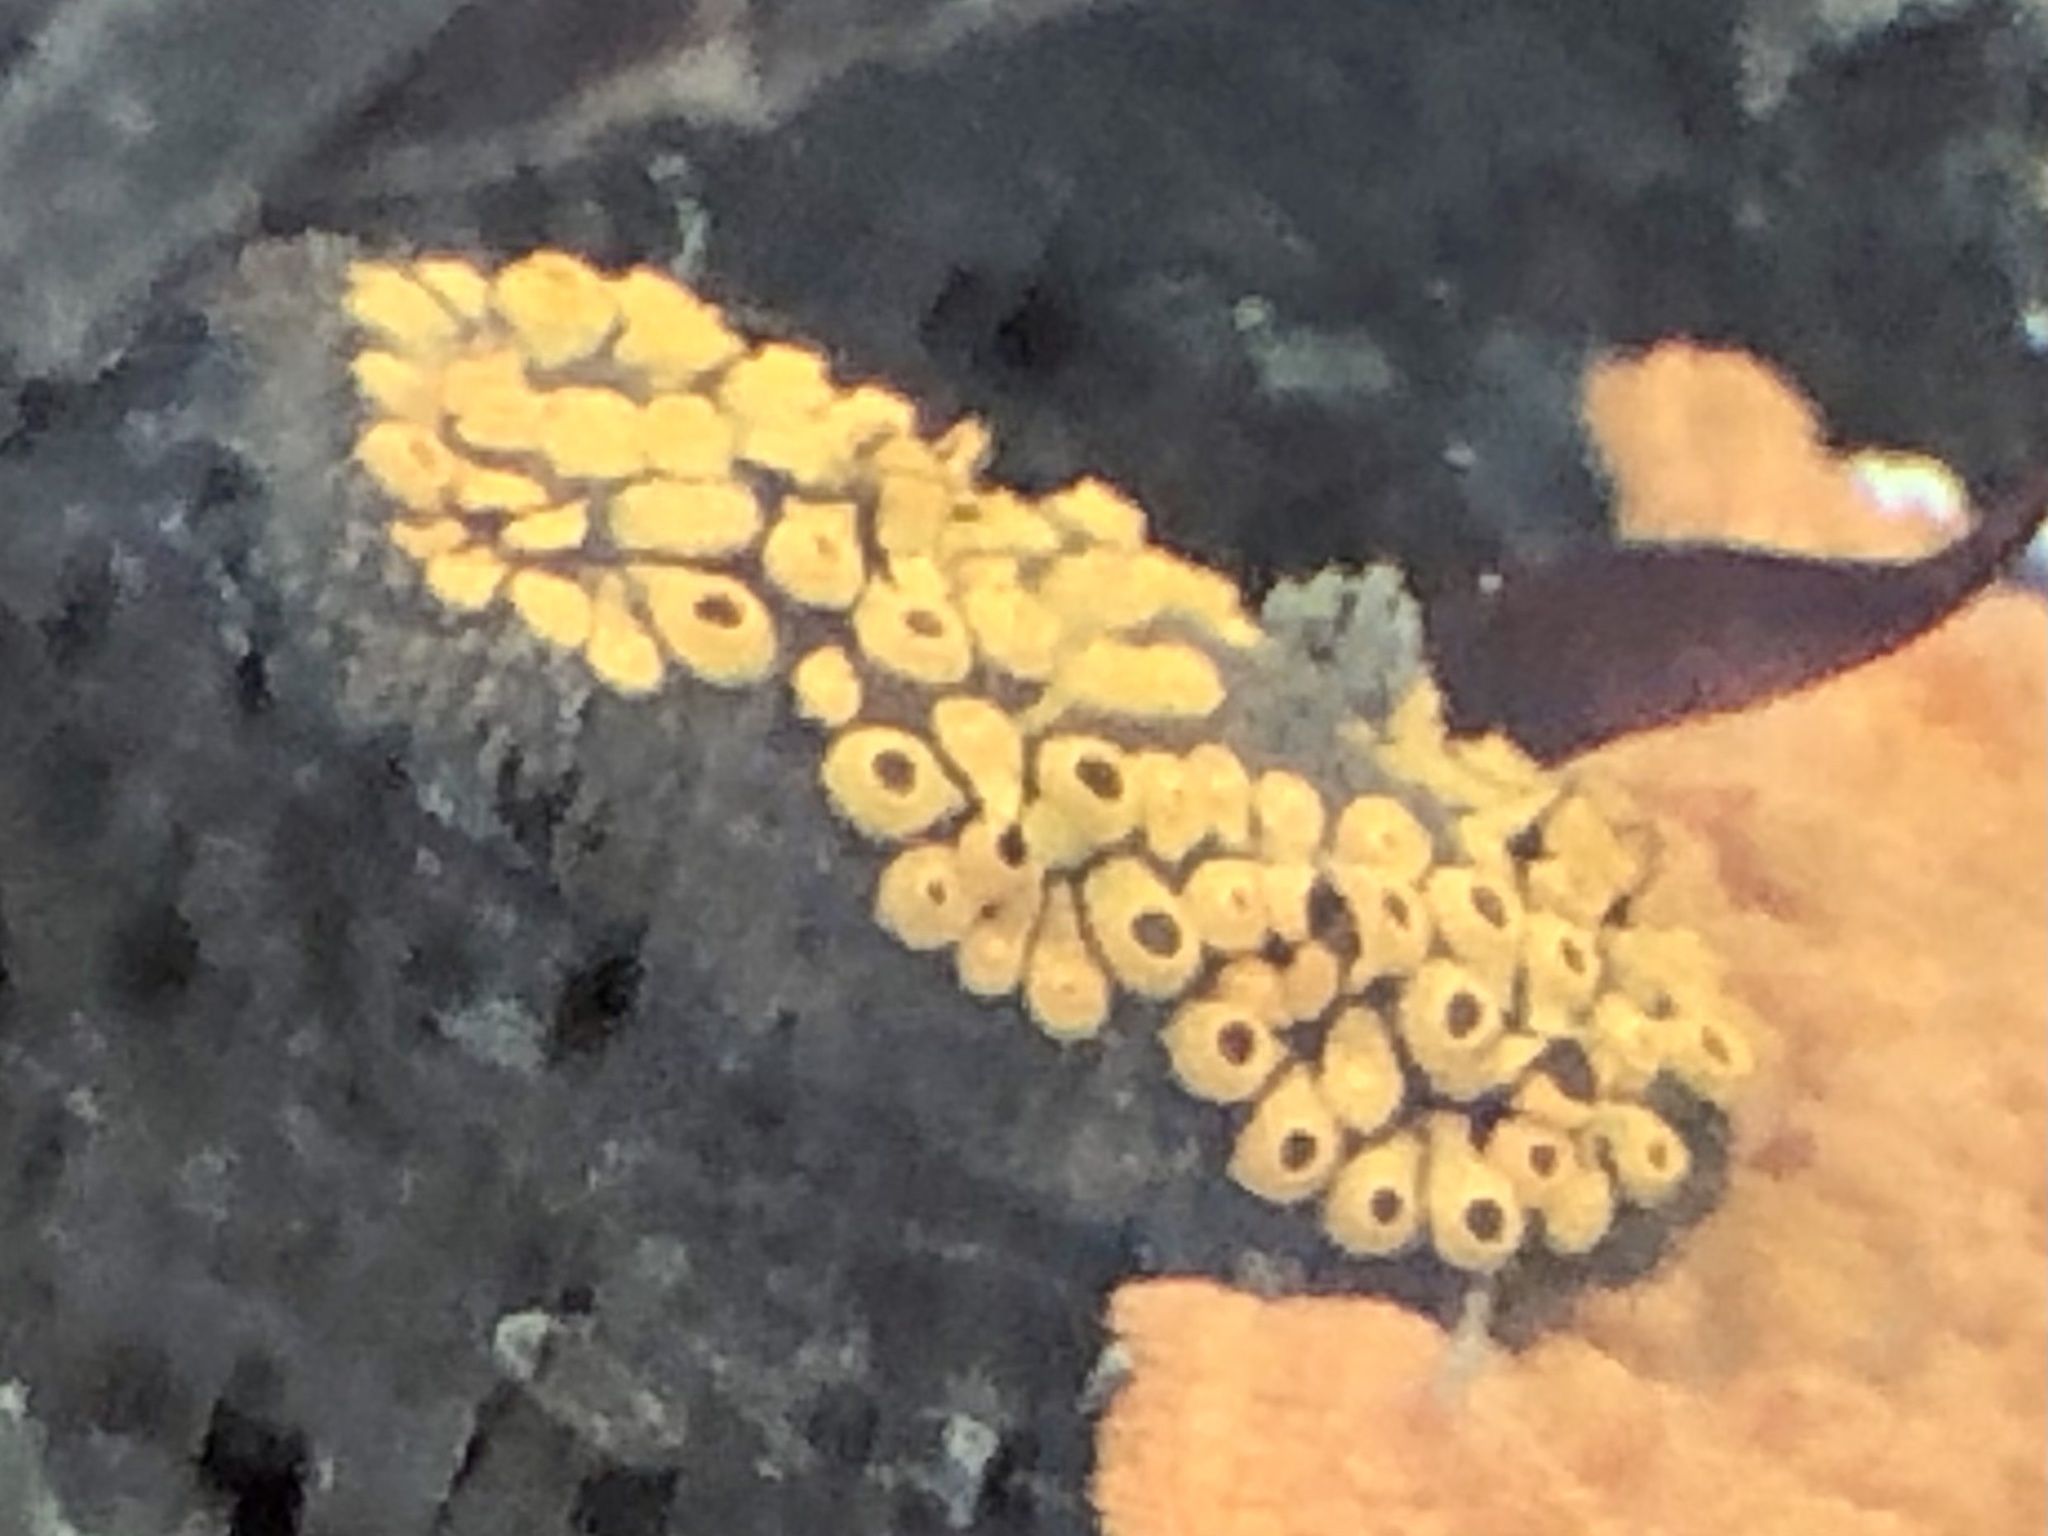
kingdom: Animalia
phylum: Chordata
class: Ascidiacea
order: Stolidobranchia
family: Styelidae
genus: Botrylloides
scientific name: Botrylloides diegensis
